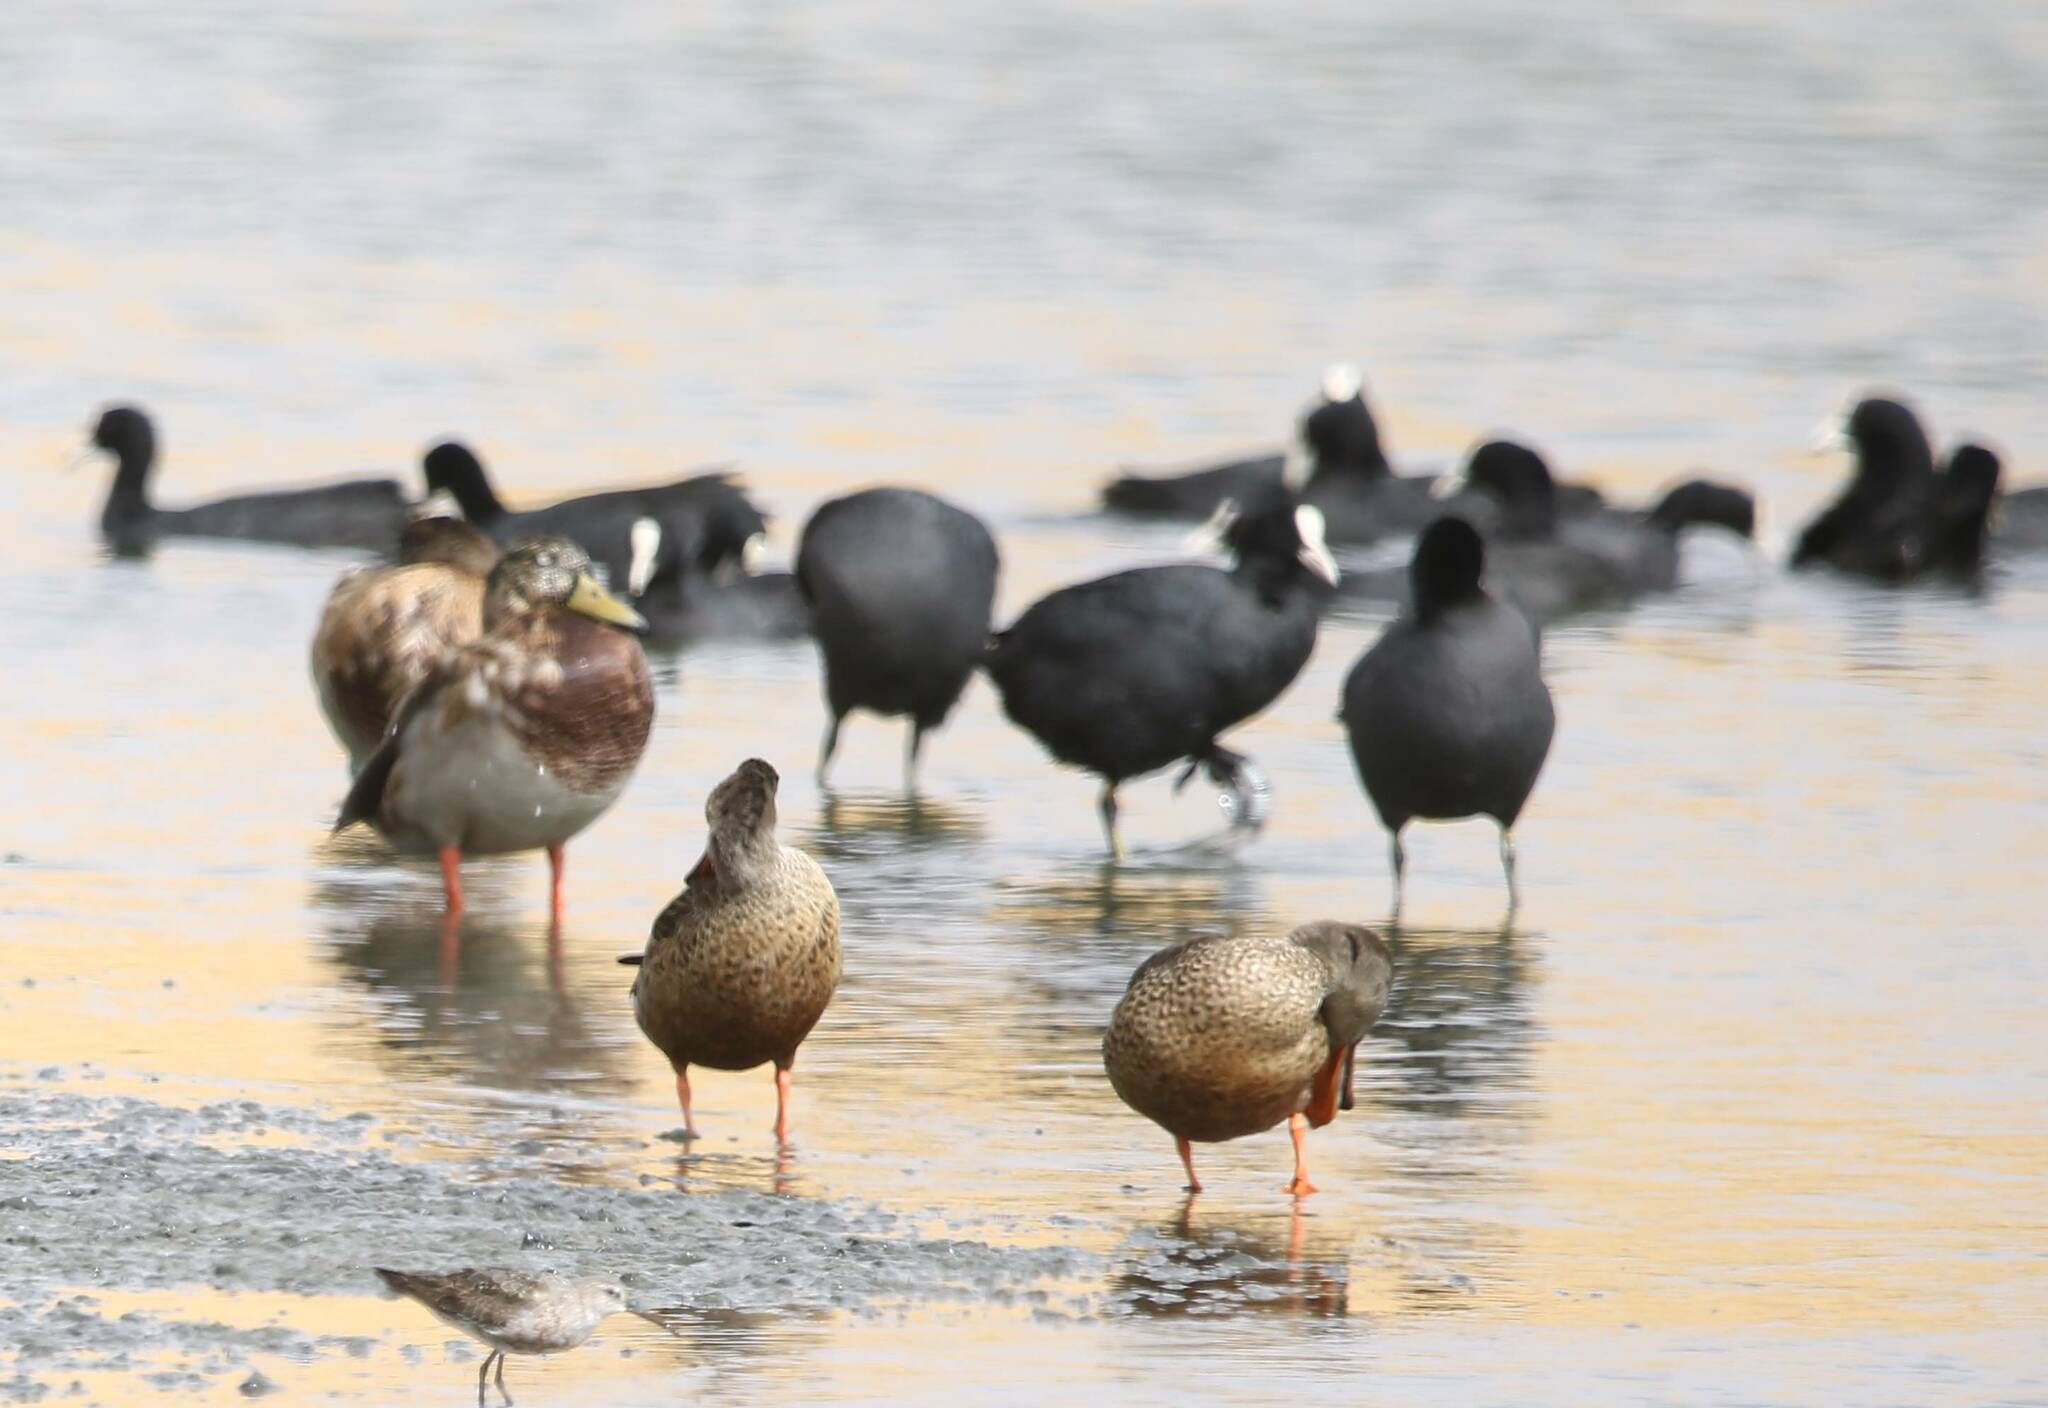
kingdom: Animalia
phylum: Chordata
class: Aves
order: Anseriformes
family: Anatidae
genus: Spatula
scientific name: Spatula clypeata
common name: Northern shoveler
